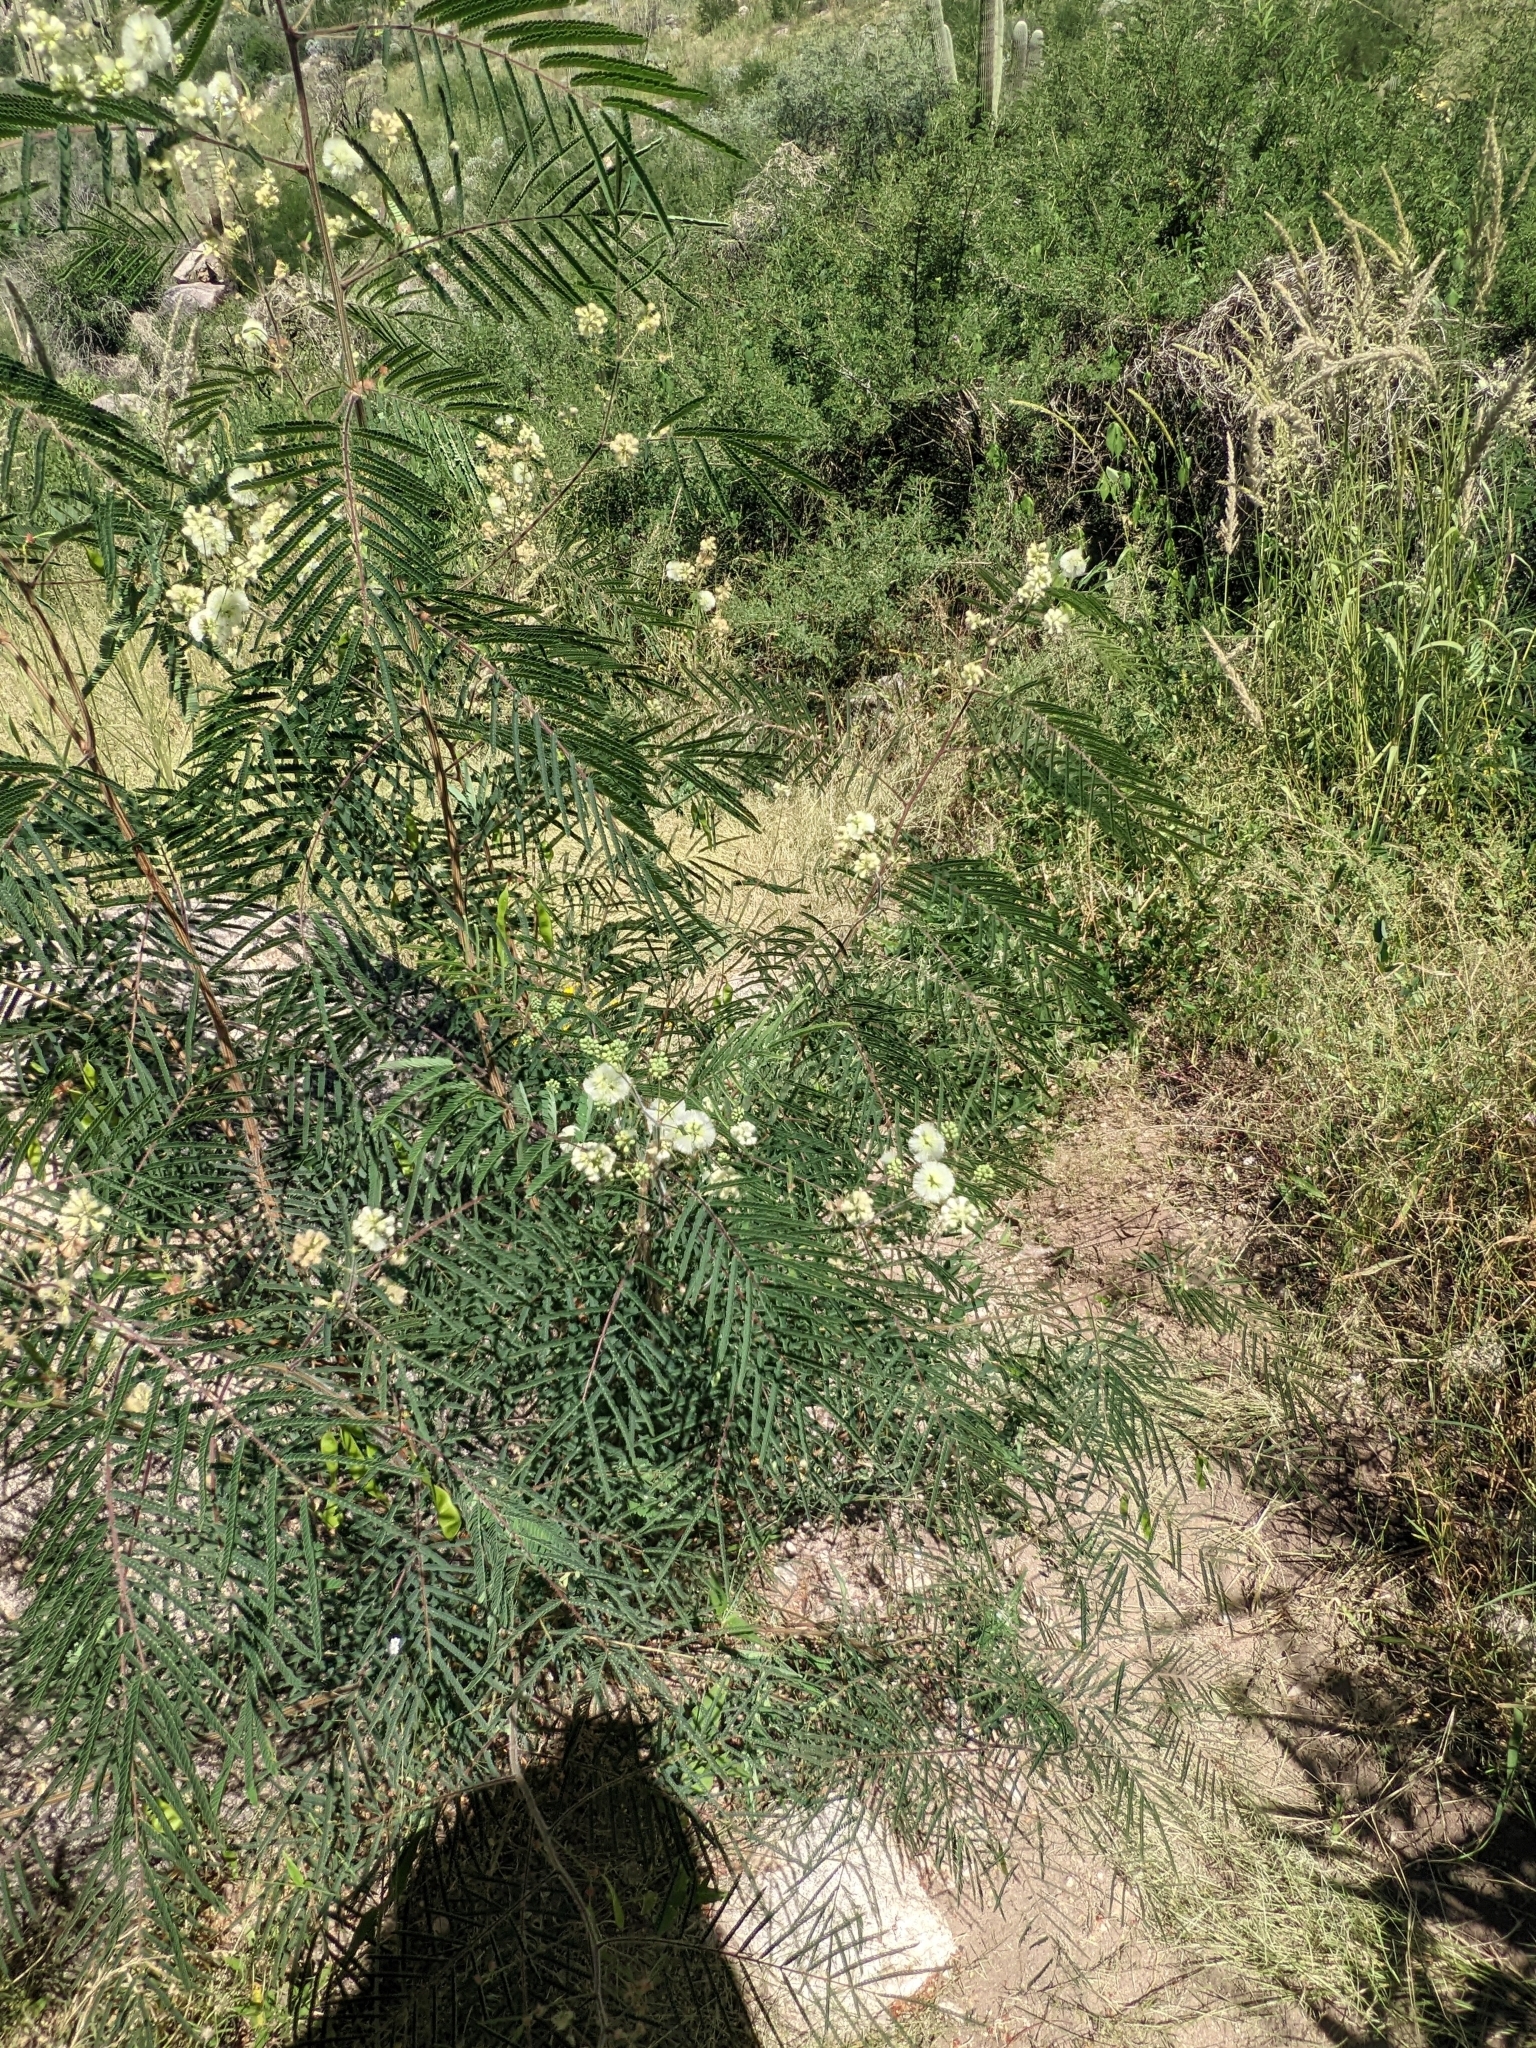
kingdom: Plantae
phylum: Tracheophyta
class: Magnoliopsida
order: Fabales
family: Fabaceae
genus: Acaciella
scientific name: Acaciella angustissima
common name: Prairie acacia
